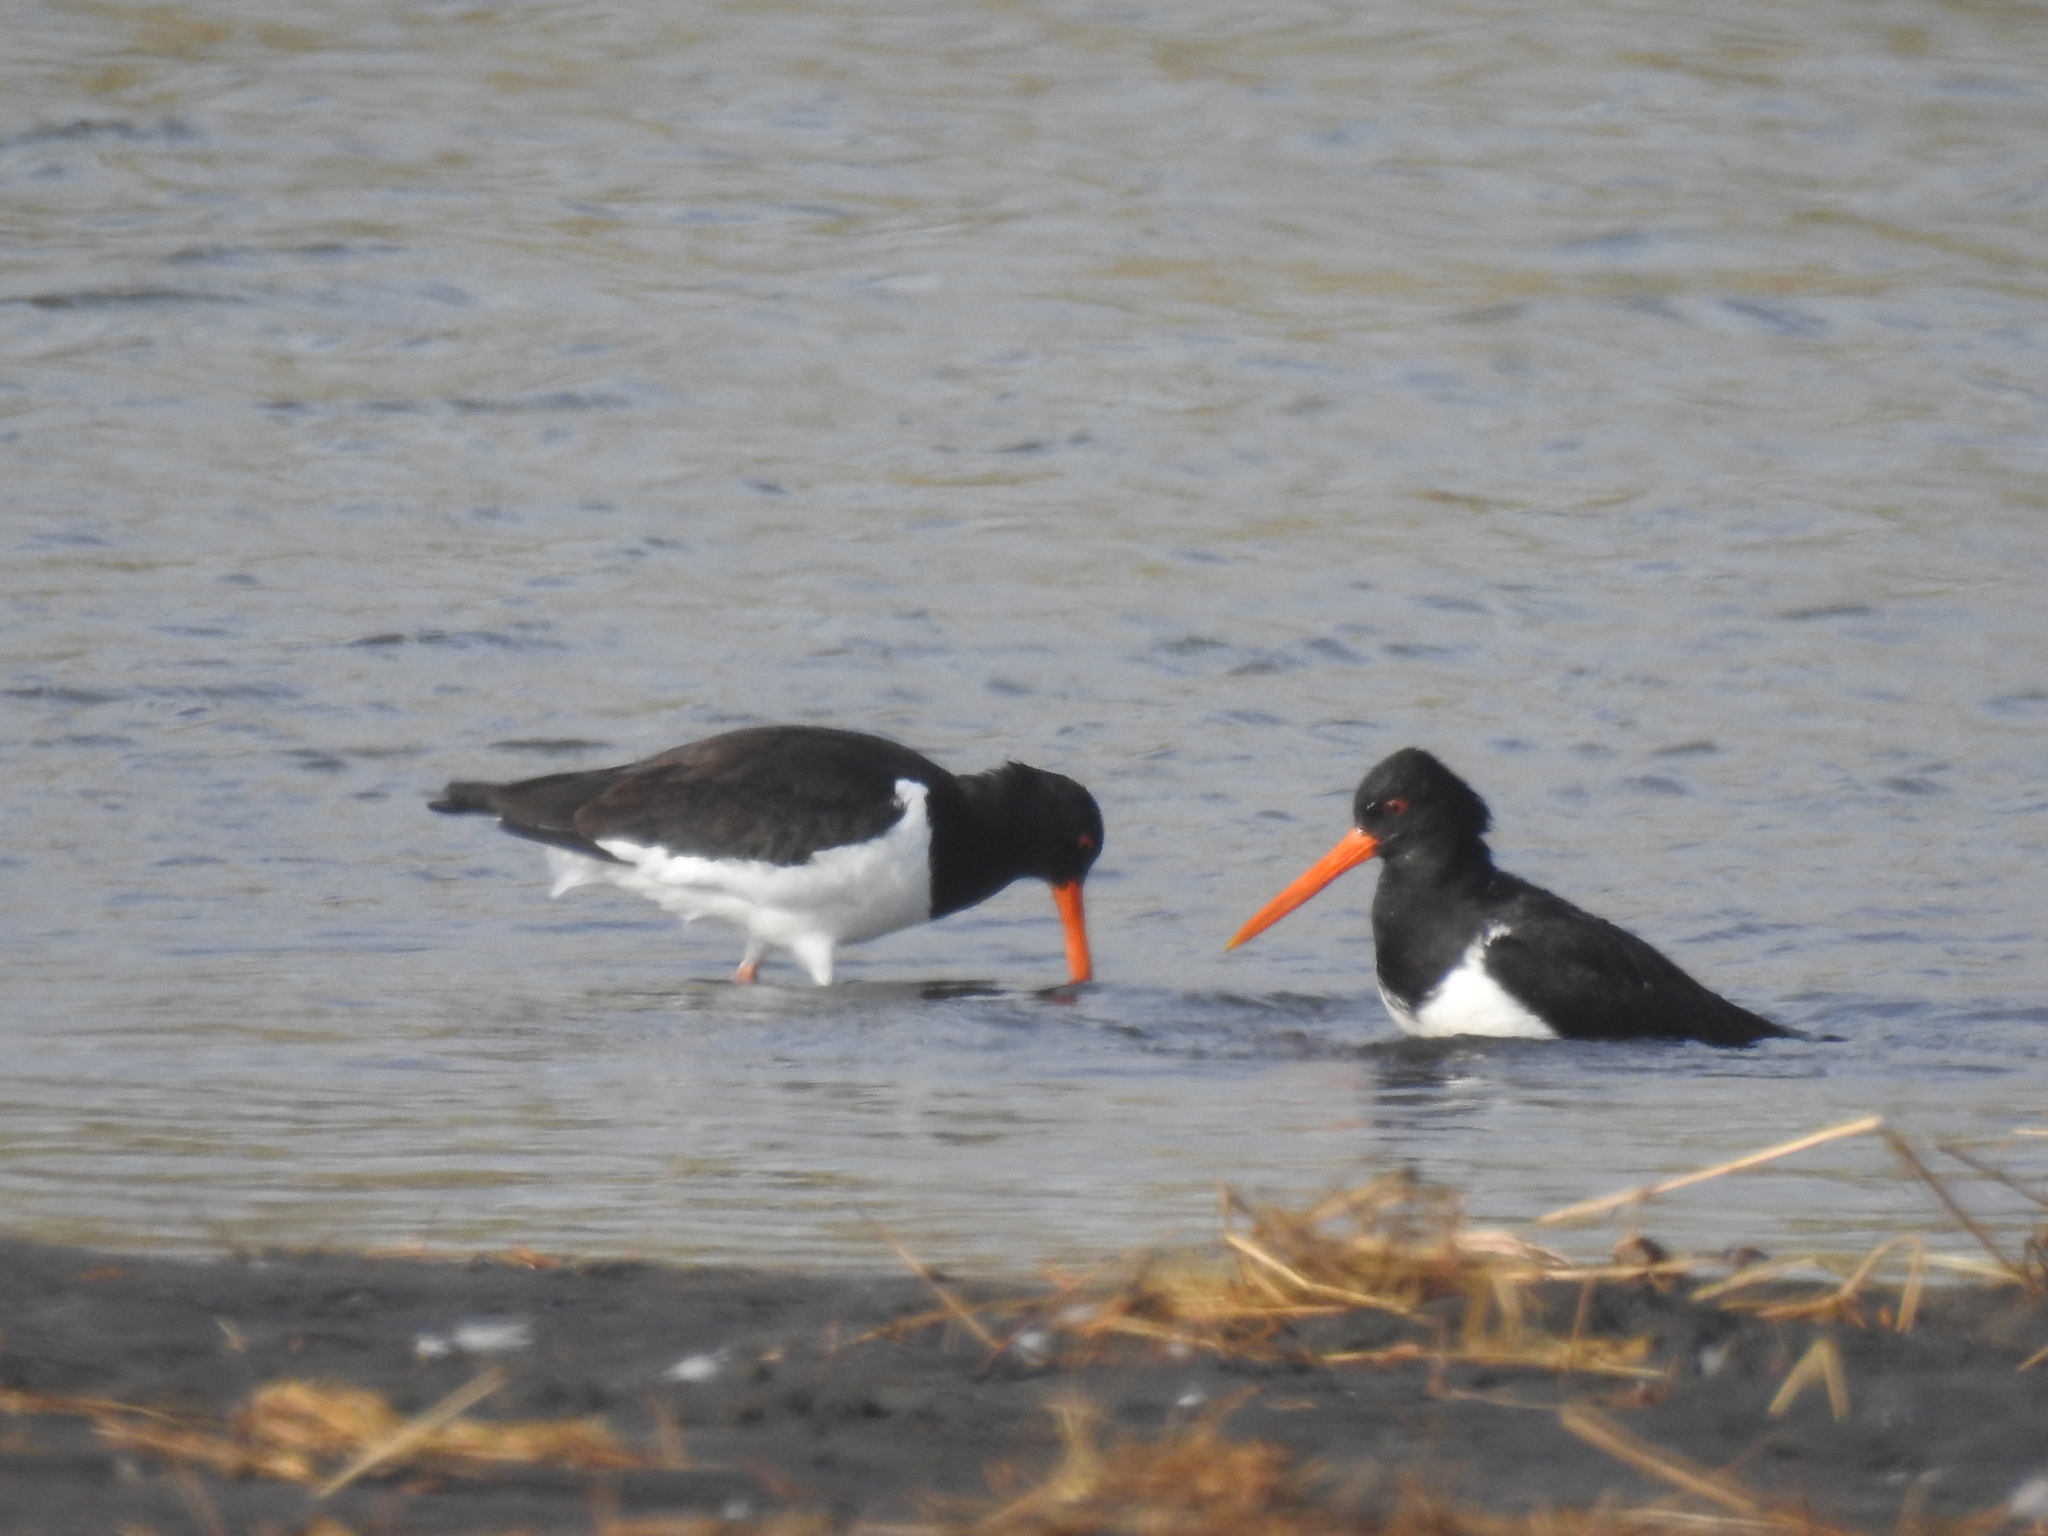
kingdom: Animalia
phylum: Chordata
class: Aves
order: Charadriiformes
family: Haematopodidae
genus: Haematopus
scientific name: Haematopus finschi
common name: South island oystercatcher
